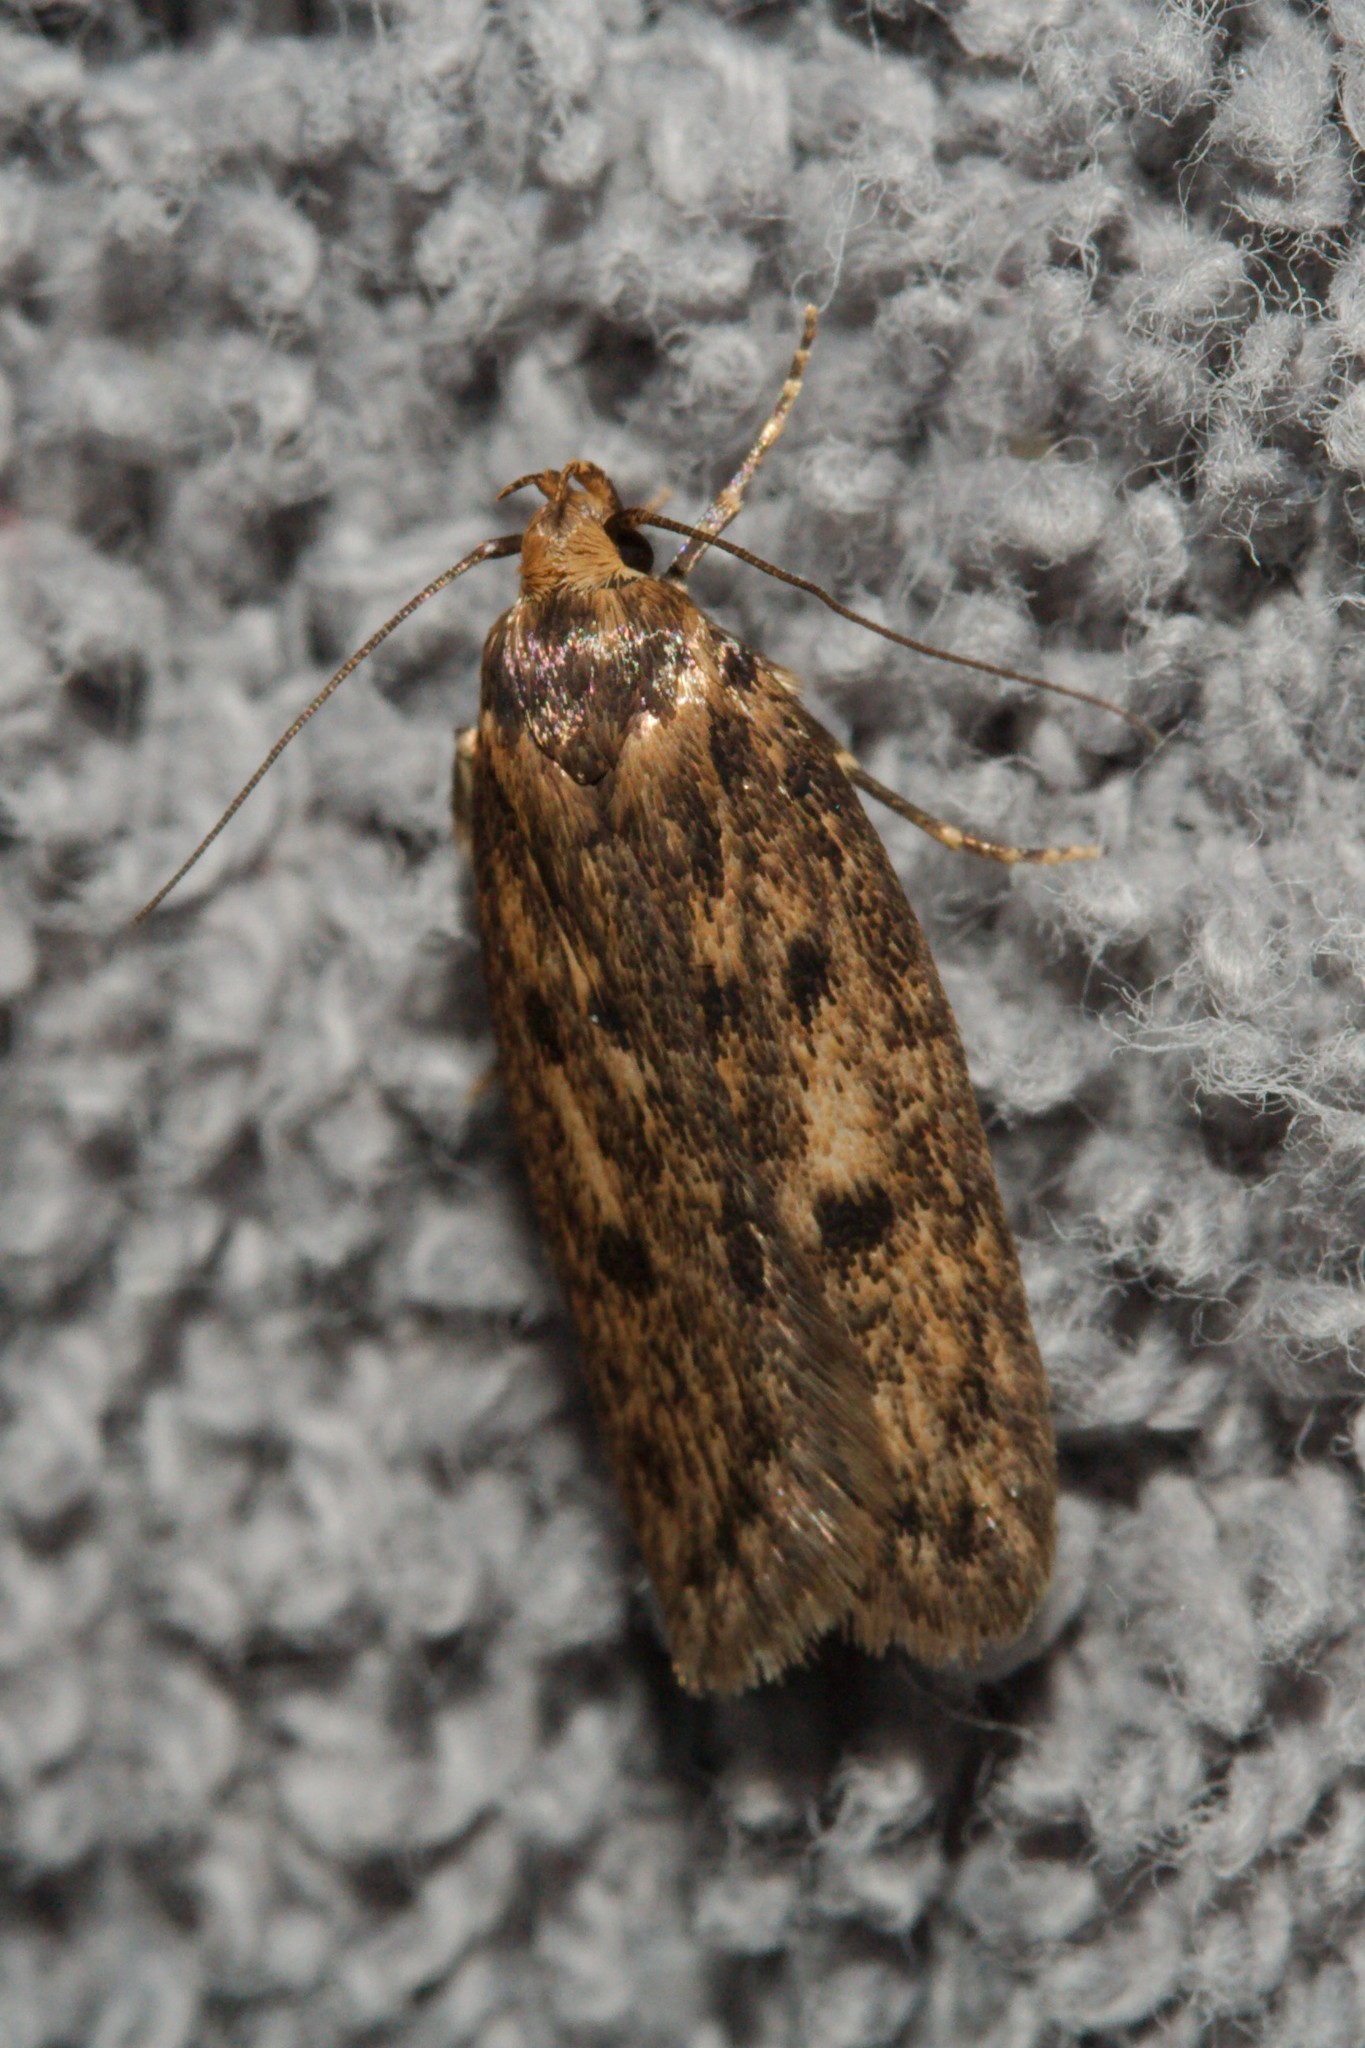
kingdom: Animalia
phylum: Arthropoda
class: Insecta
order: Lepidoptera
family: Oecophoridae
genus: Hofmannophila
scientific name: Hofmannophila pseudospretella
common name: Brown house moth
